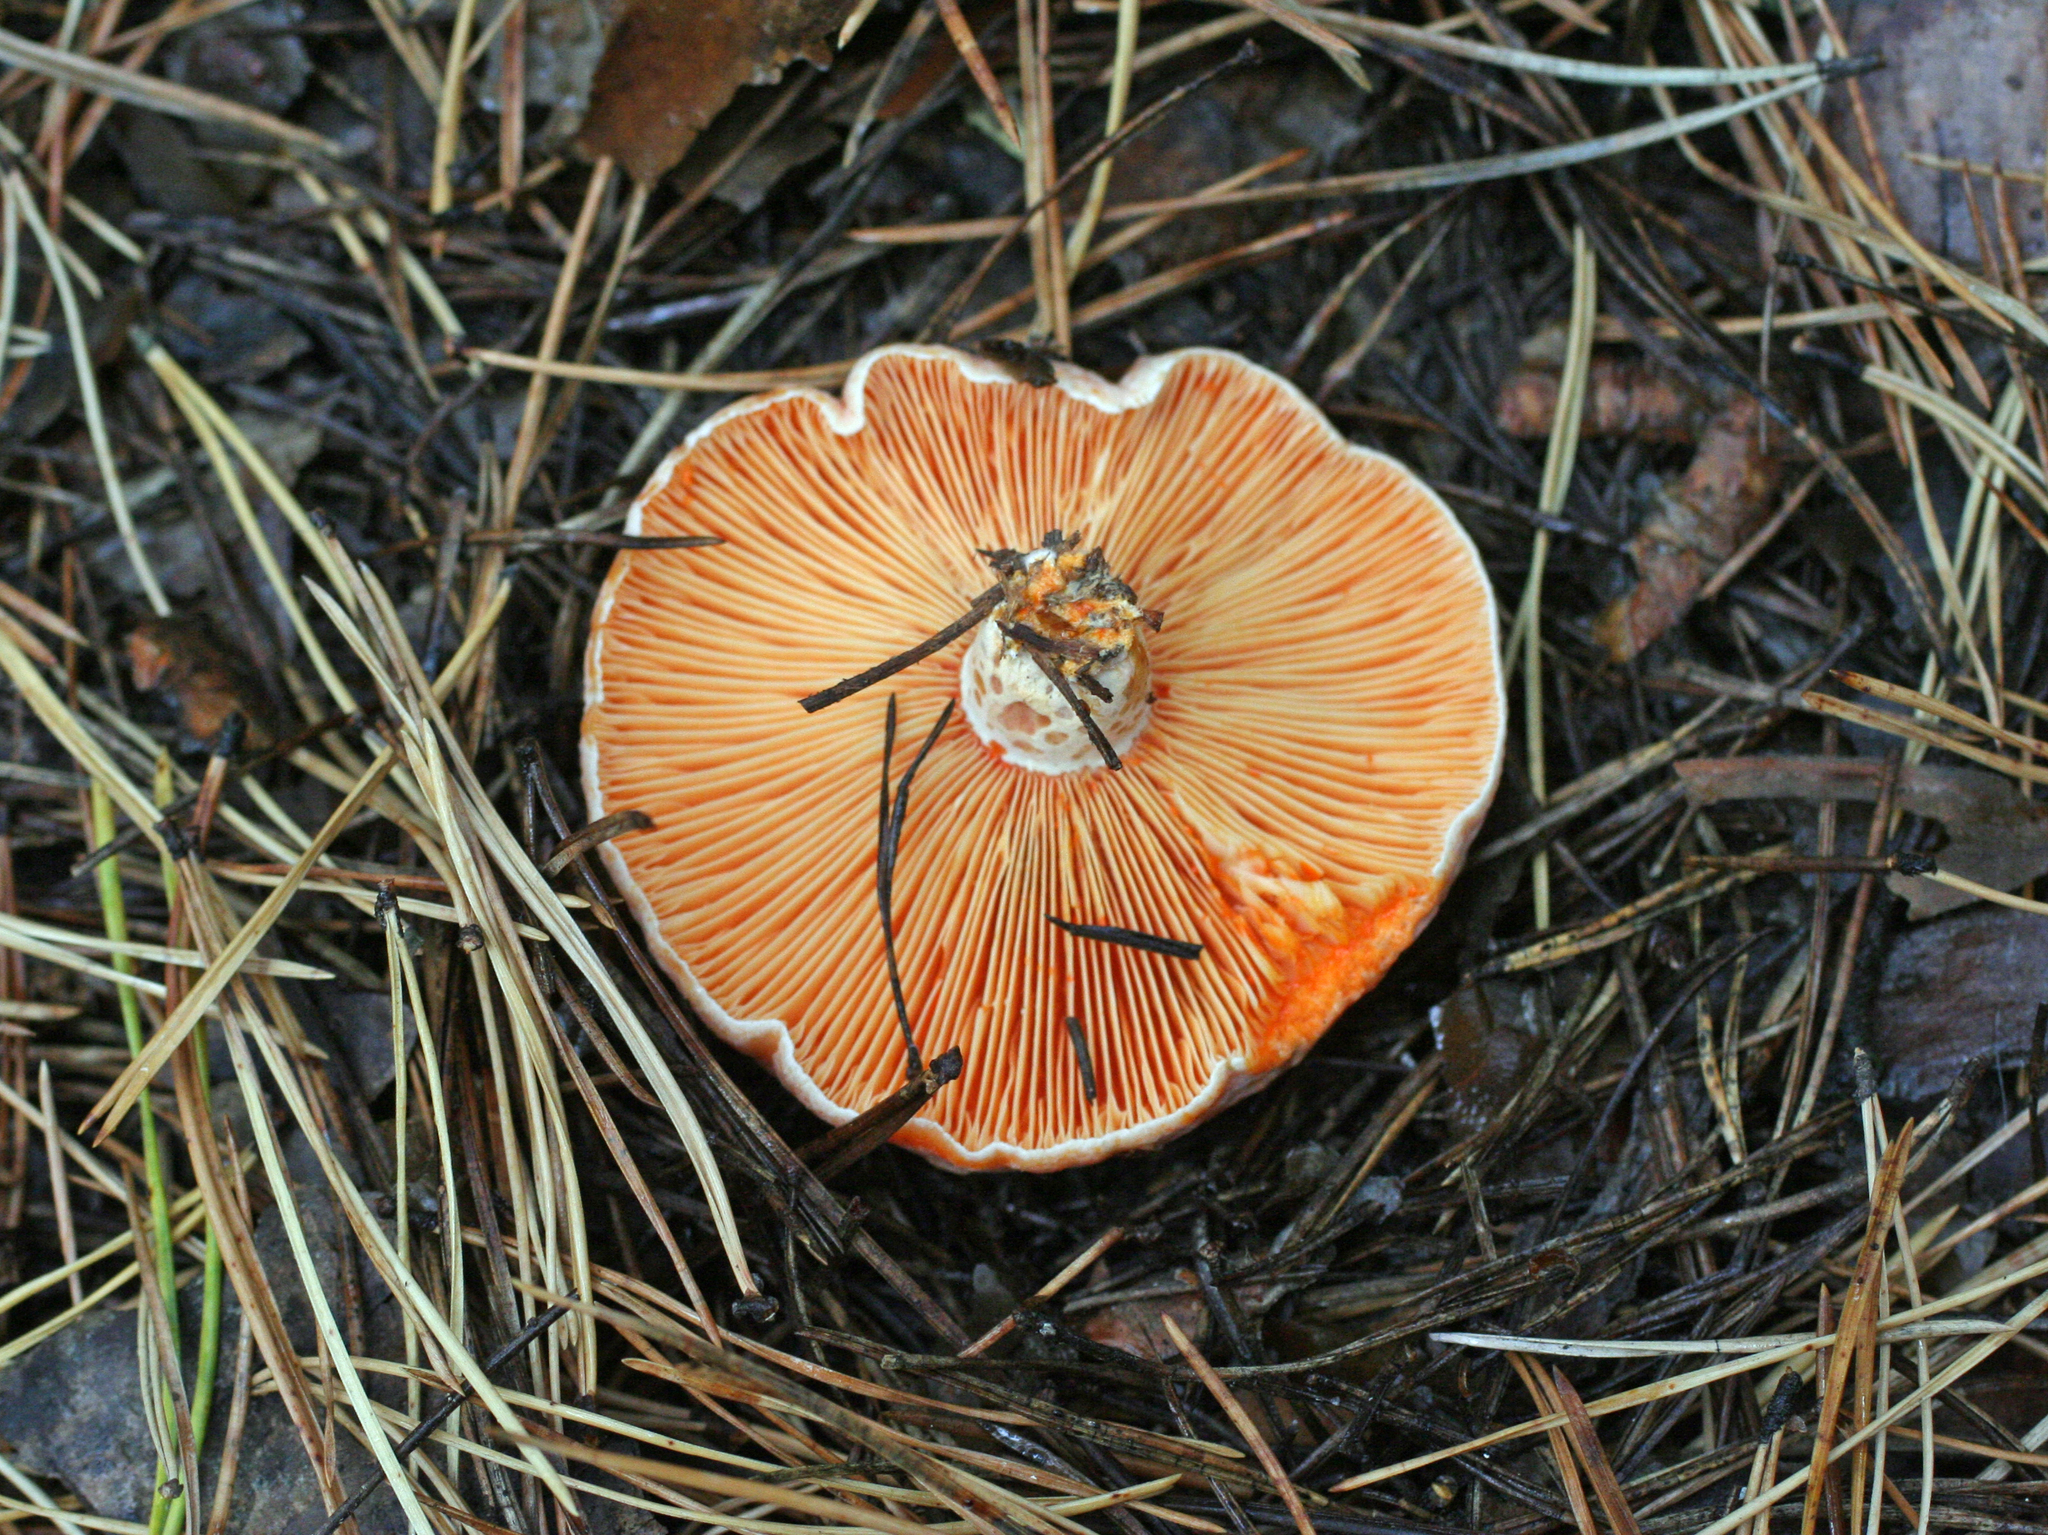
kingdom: Fungi
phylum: Basidiomycota
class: Agaricomycetes
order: Russulales
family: Russulaceae
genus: Lactarius
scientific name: Lactarius deliciosus
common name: Saffron milk-cap
